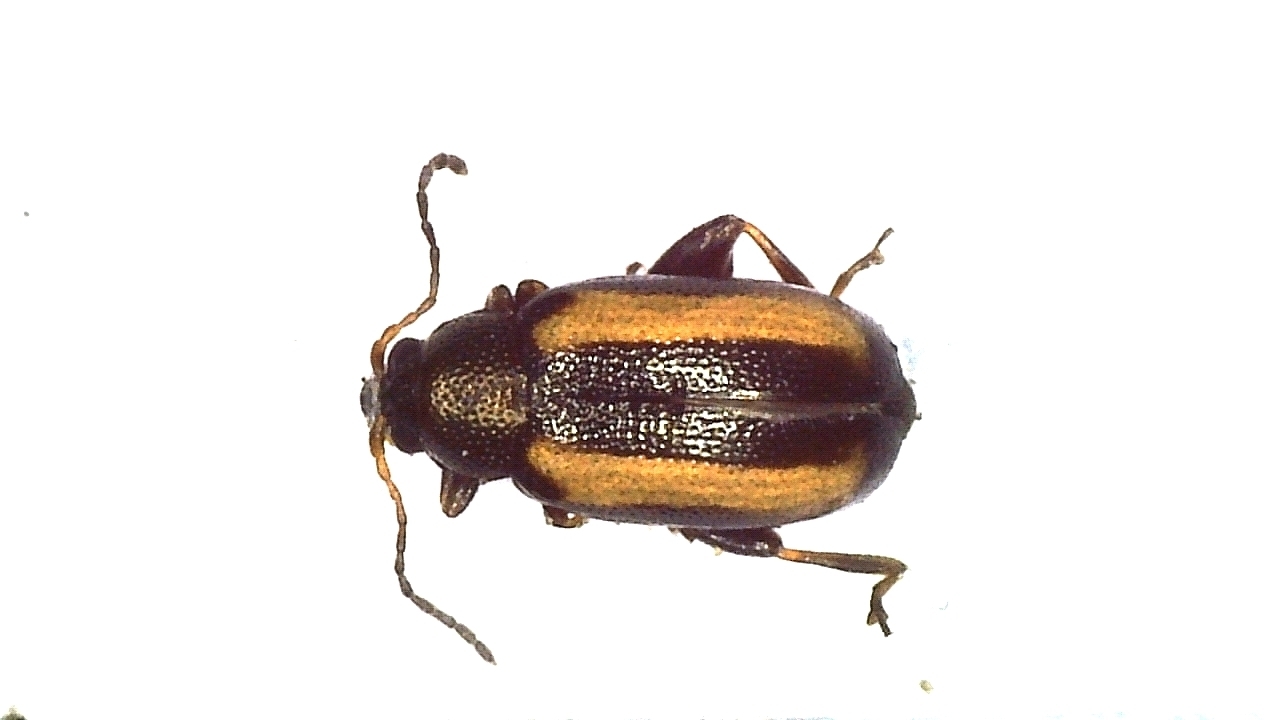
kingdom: Animalia
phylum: Arthropoda
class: Insecta
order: Coleoptera
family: Chrysomelidae
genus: Phyllotreta
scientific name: Phyllotreta nemorum
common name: Large striped flea beetle
